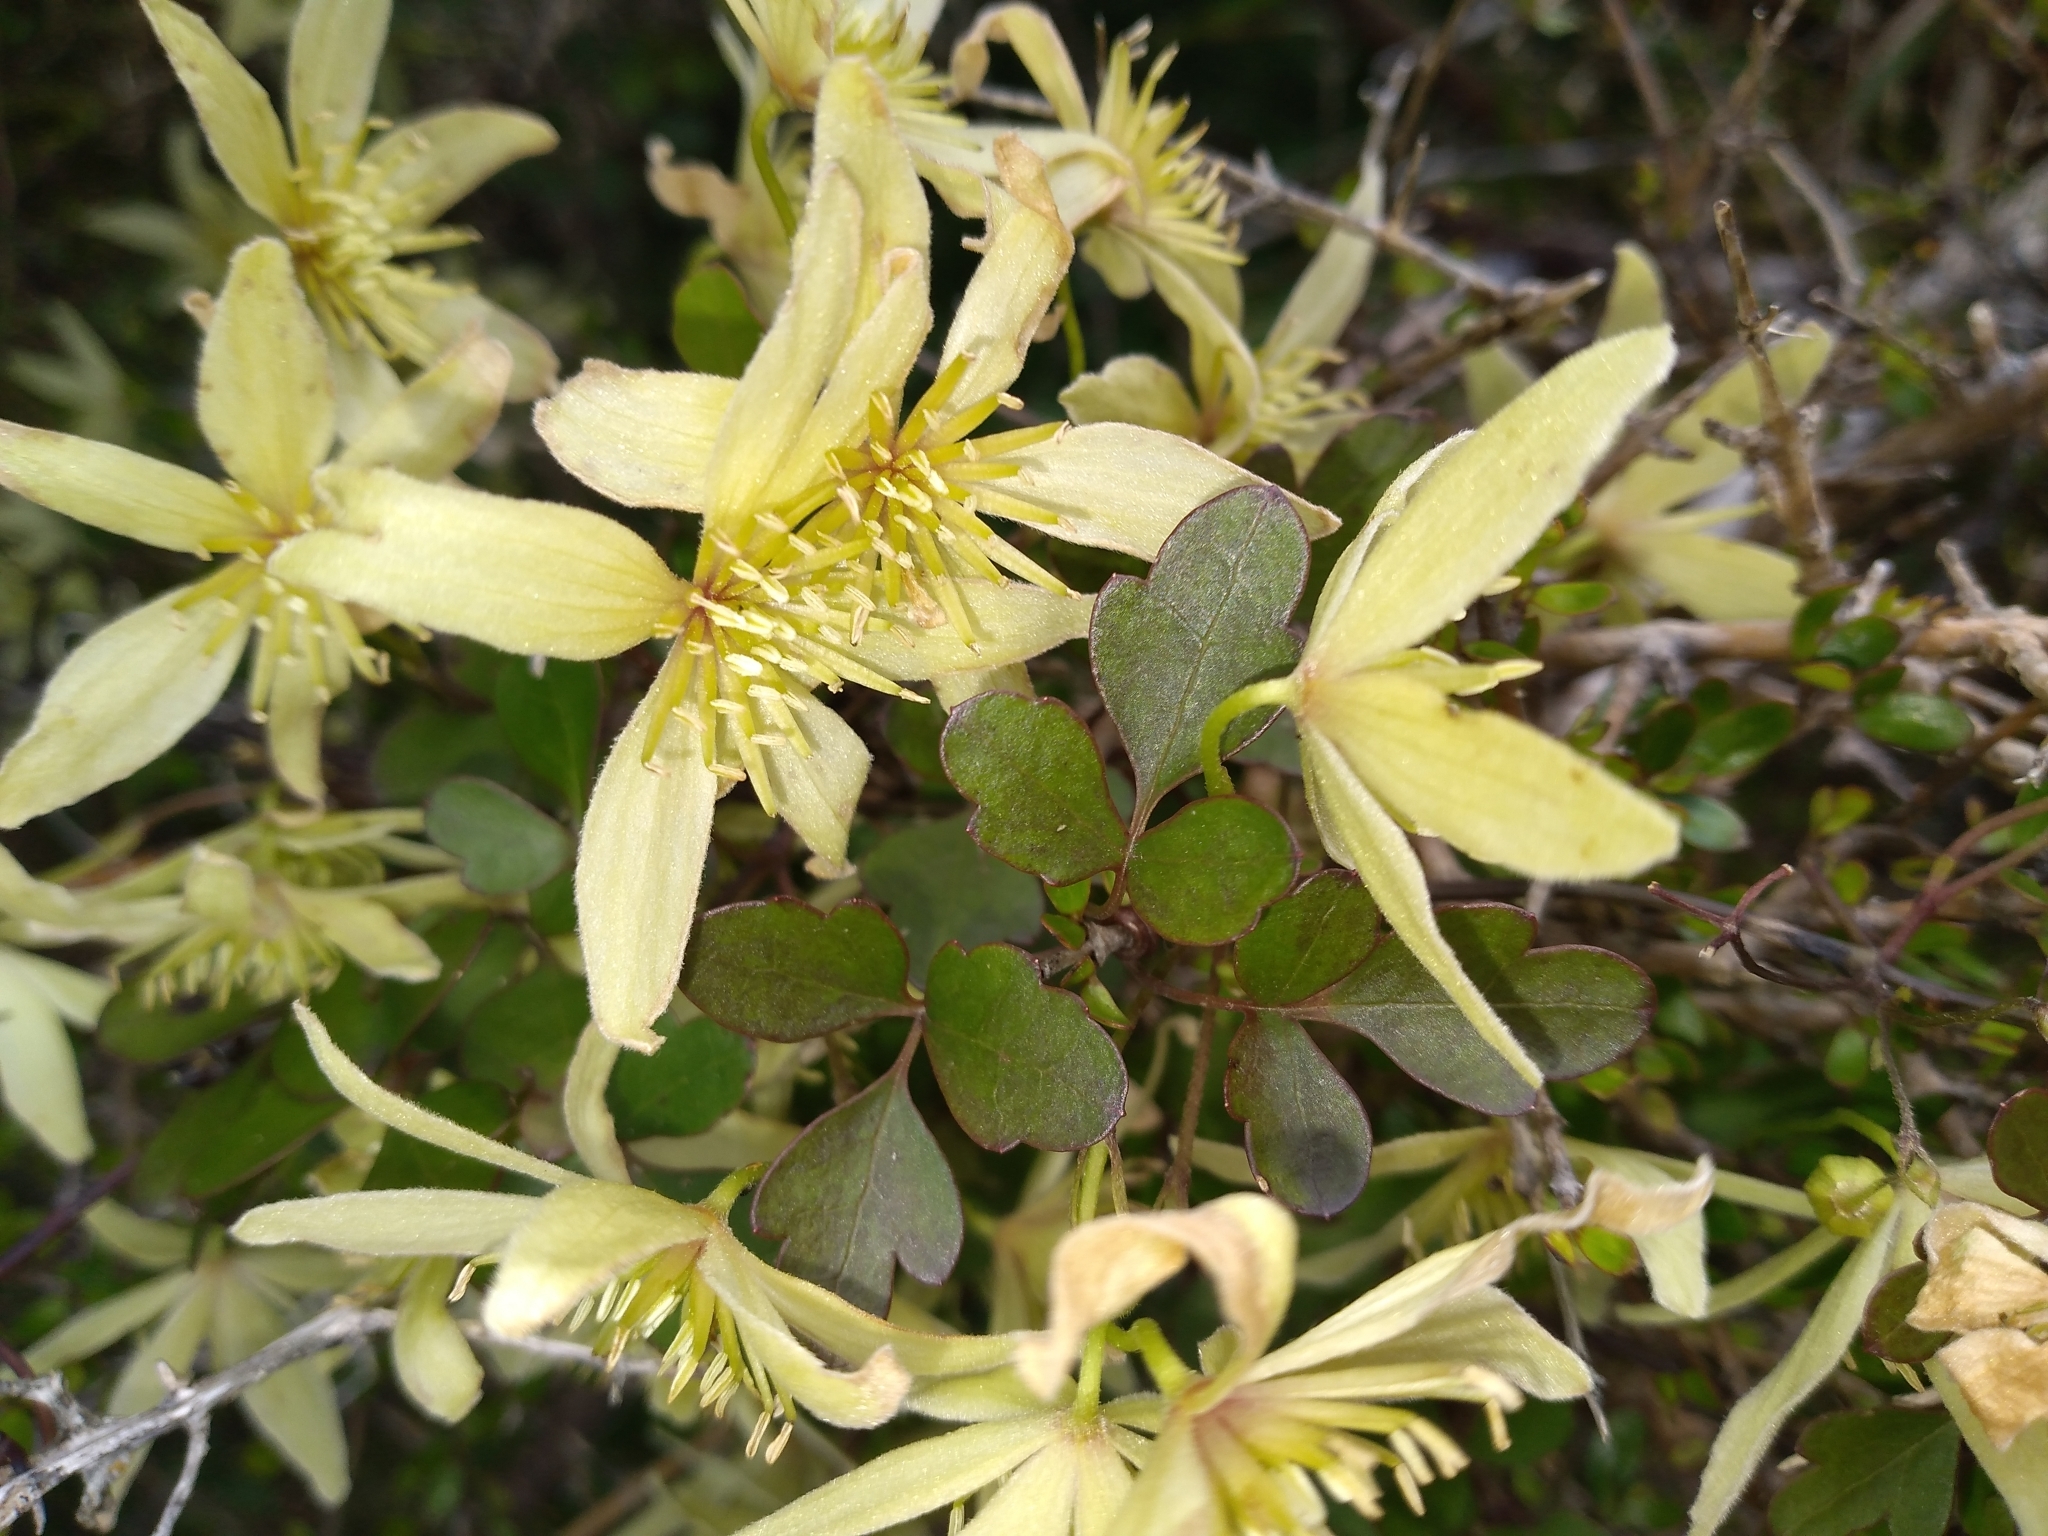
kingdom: Plantae
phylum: Tracheophyta
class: Magnoliopsida
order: Ranunculales
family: Ranunculaceae
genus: Clematis
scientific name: Clematis forsteri
